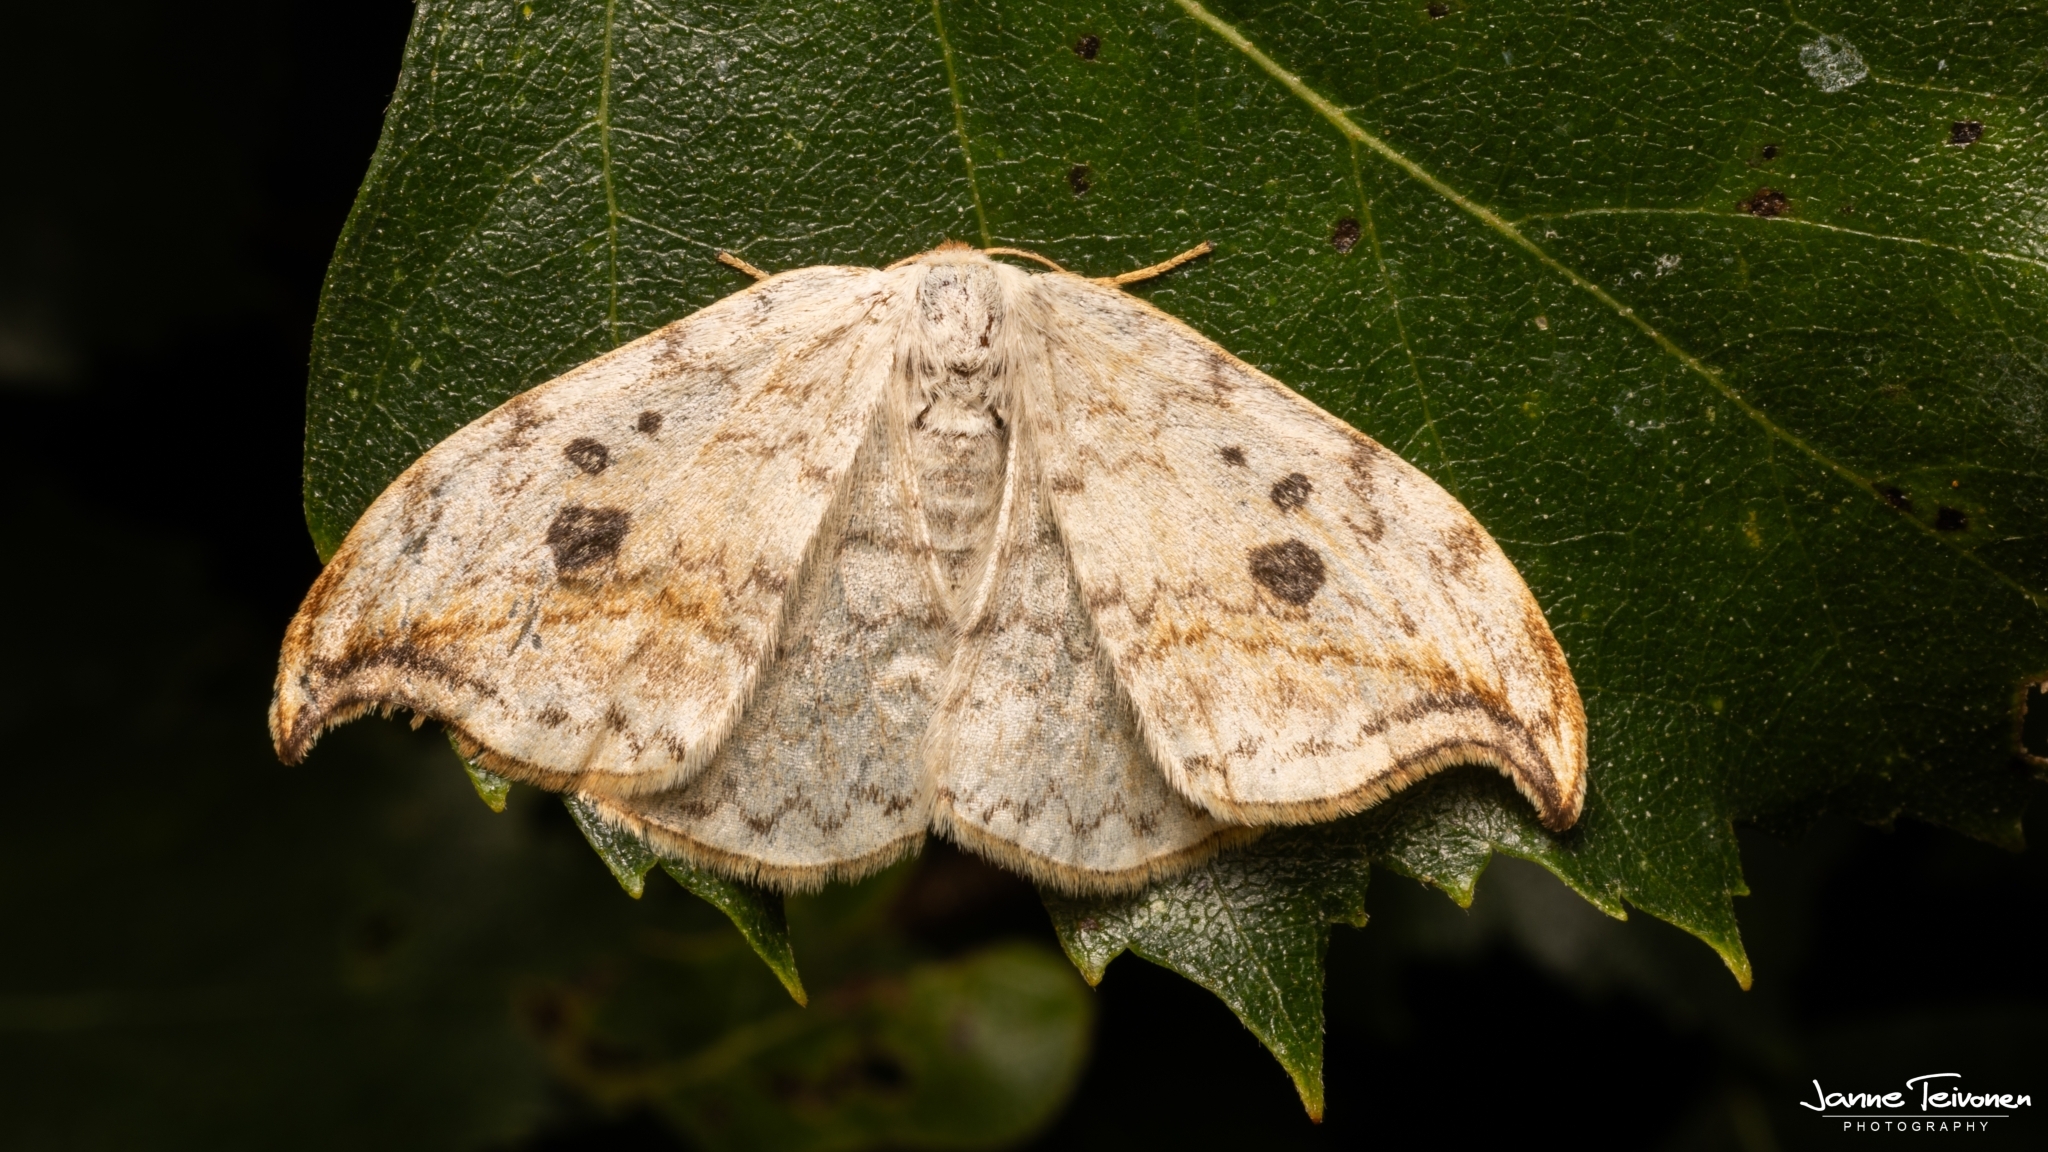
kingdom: Animalia
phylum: Arthropoda
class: Insecta
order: Lepidoptera
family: Drepanidae
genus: Drepana
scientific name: Drepana falcataria
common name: Pebble hook-tip
